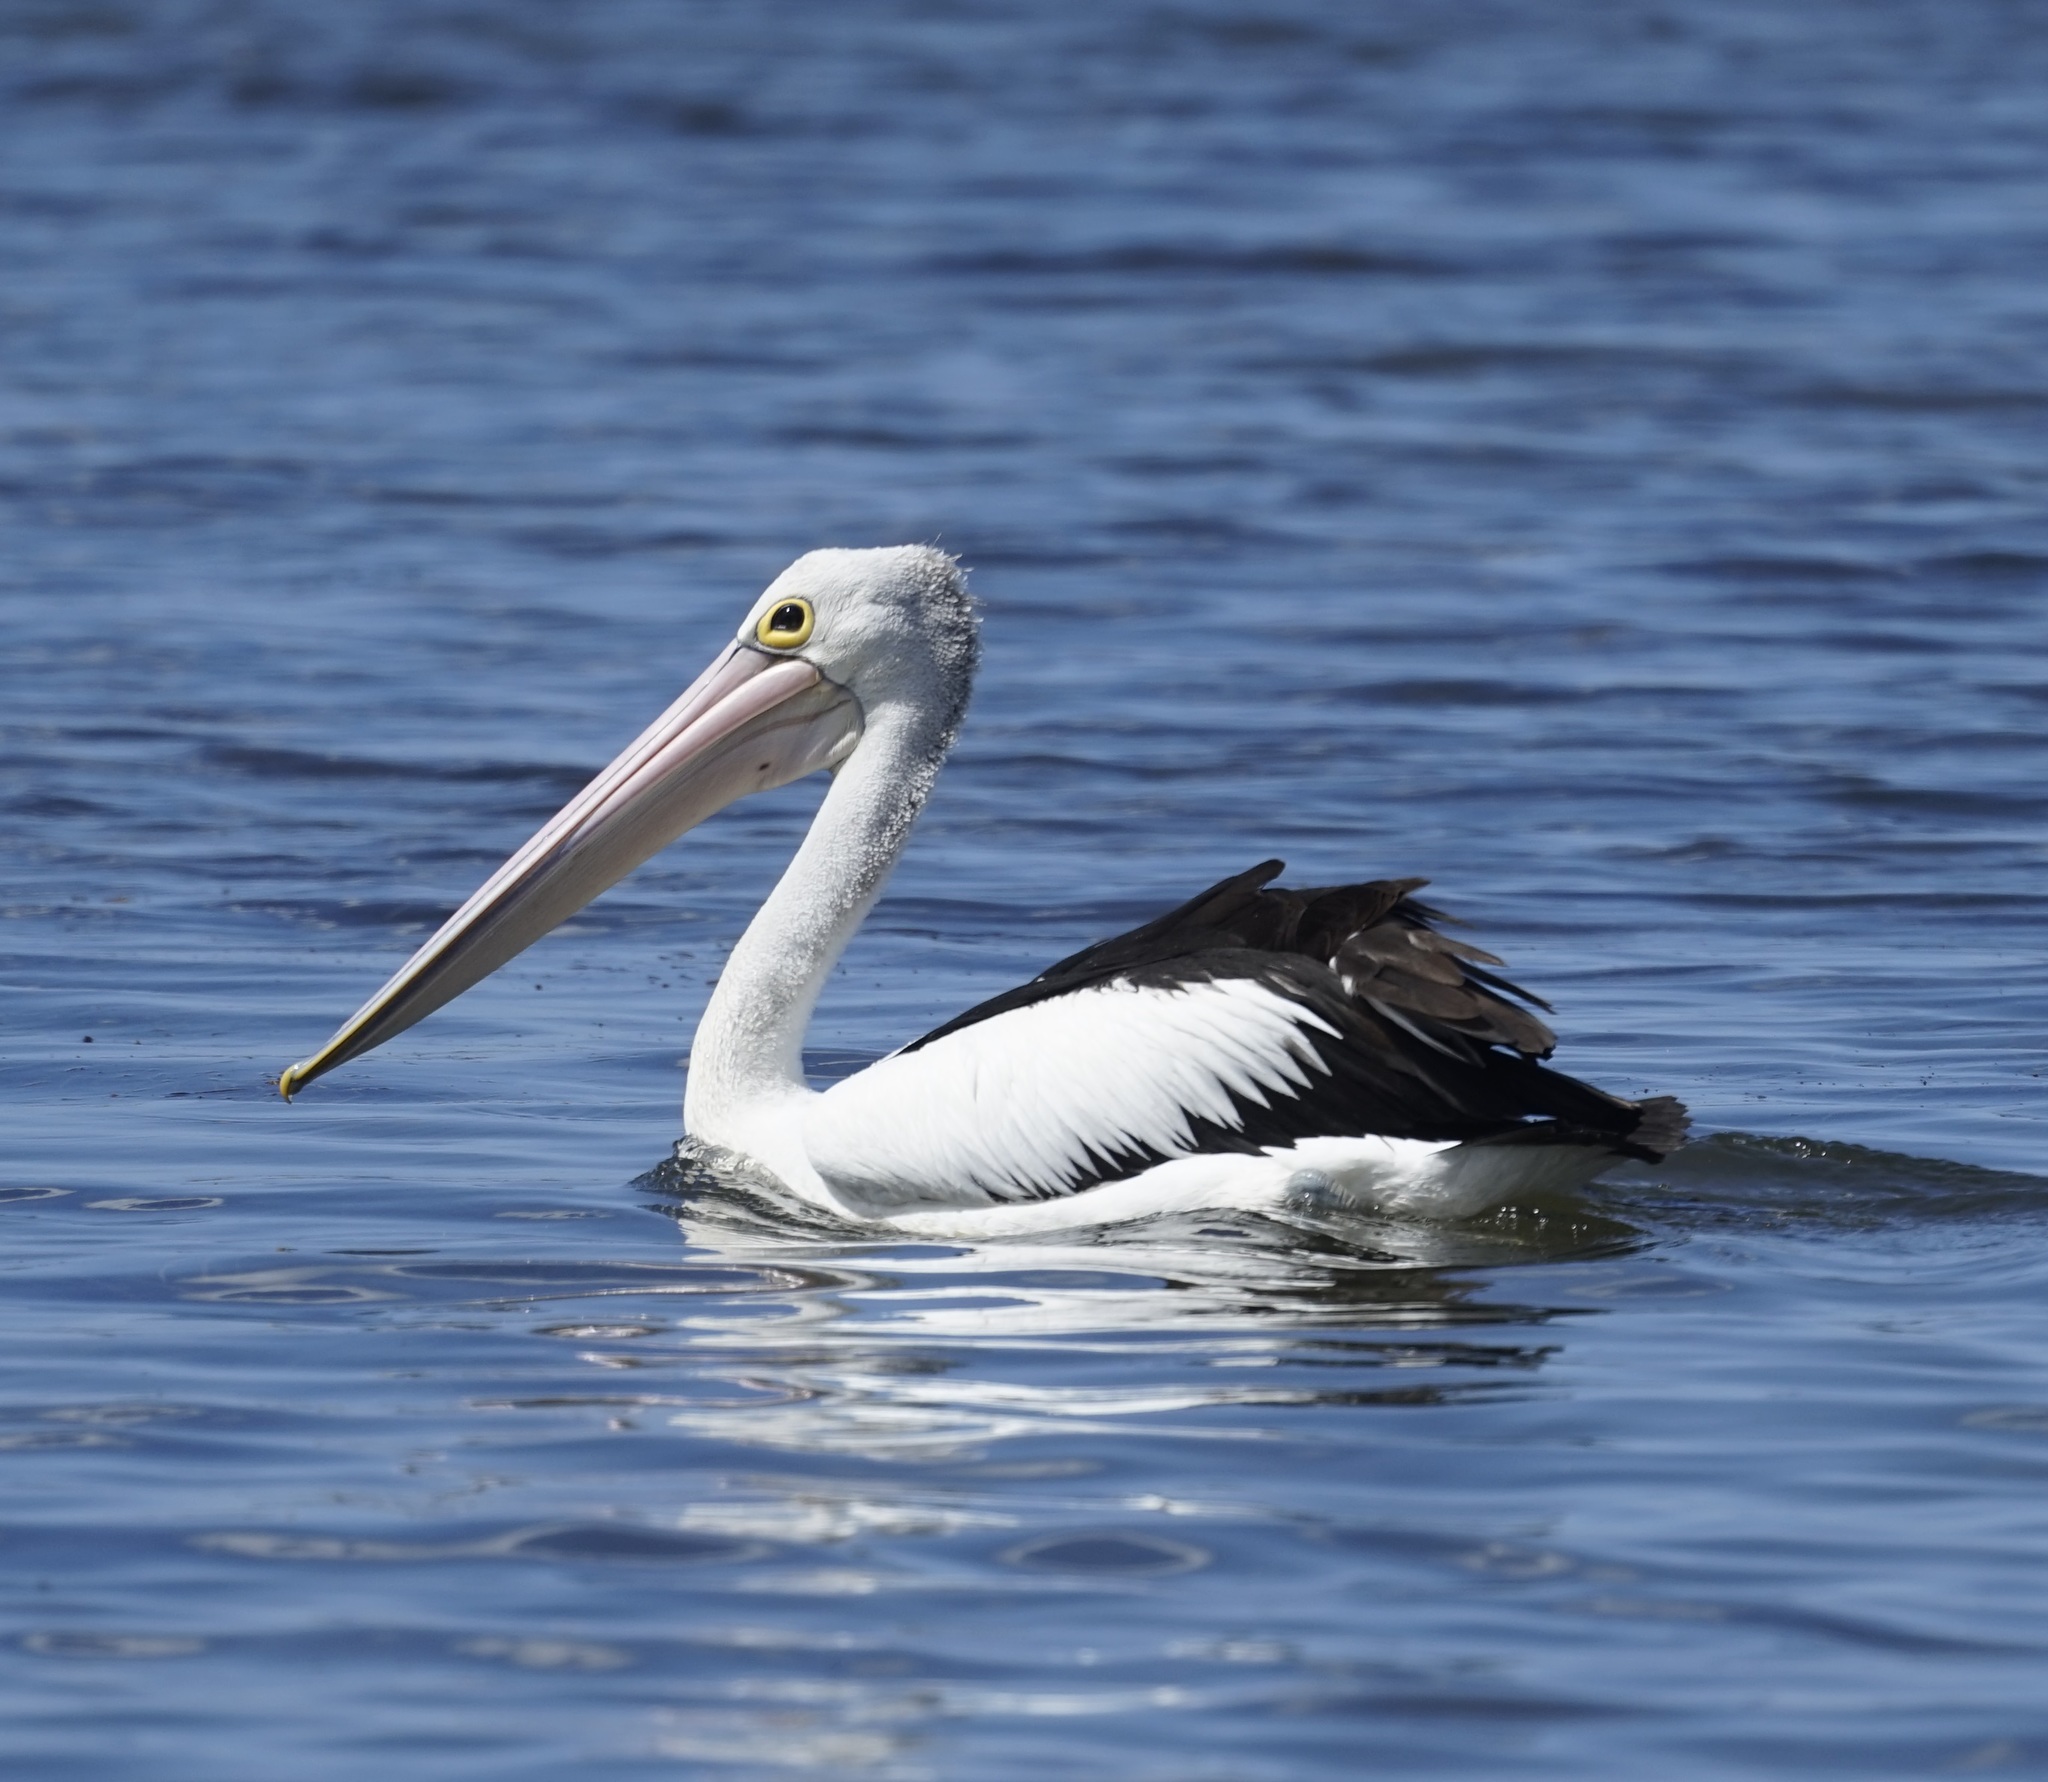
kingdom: Animalia
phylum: Chordata
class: Aves
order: Pelecaniformes
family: Pelecanidae
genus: Pelecanus
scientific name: Pelecanus conspicillatus
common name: Australian pelican
